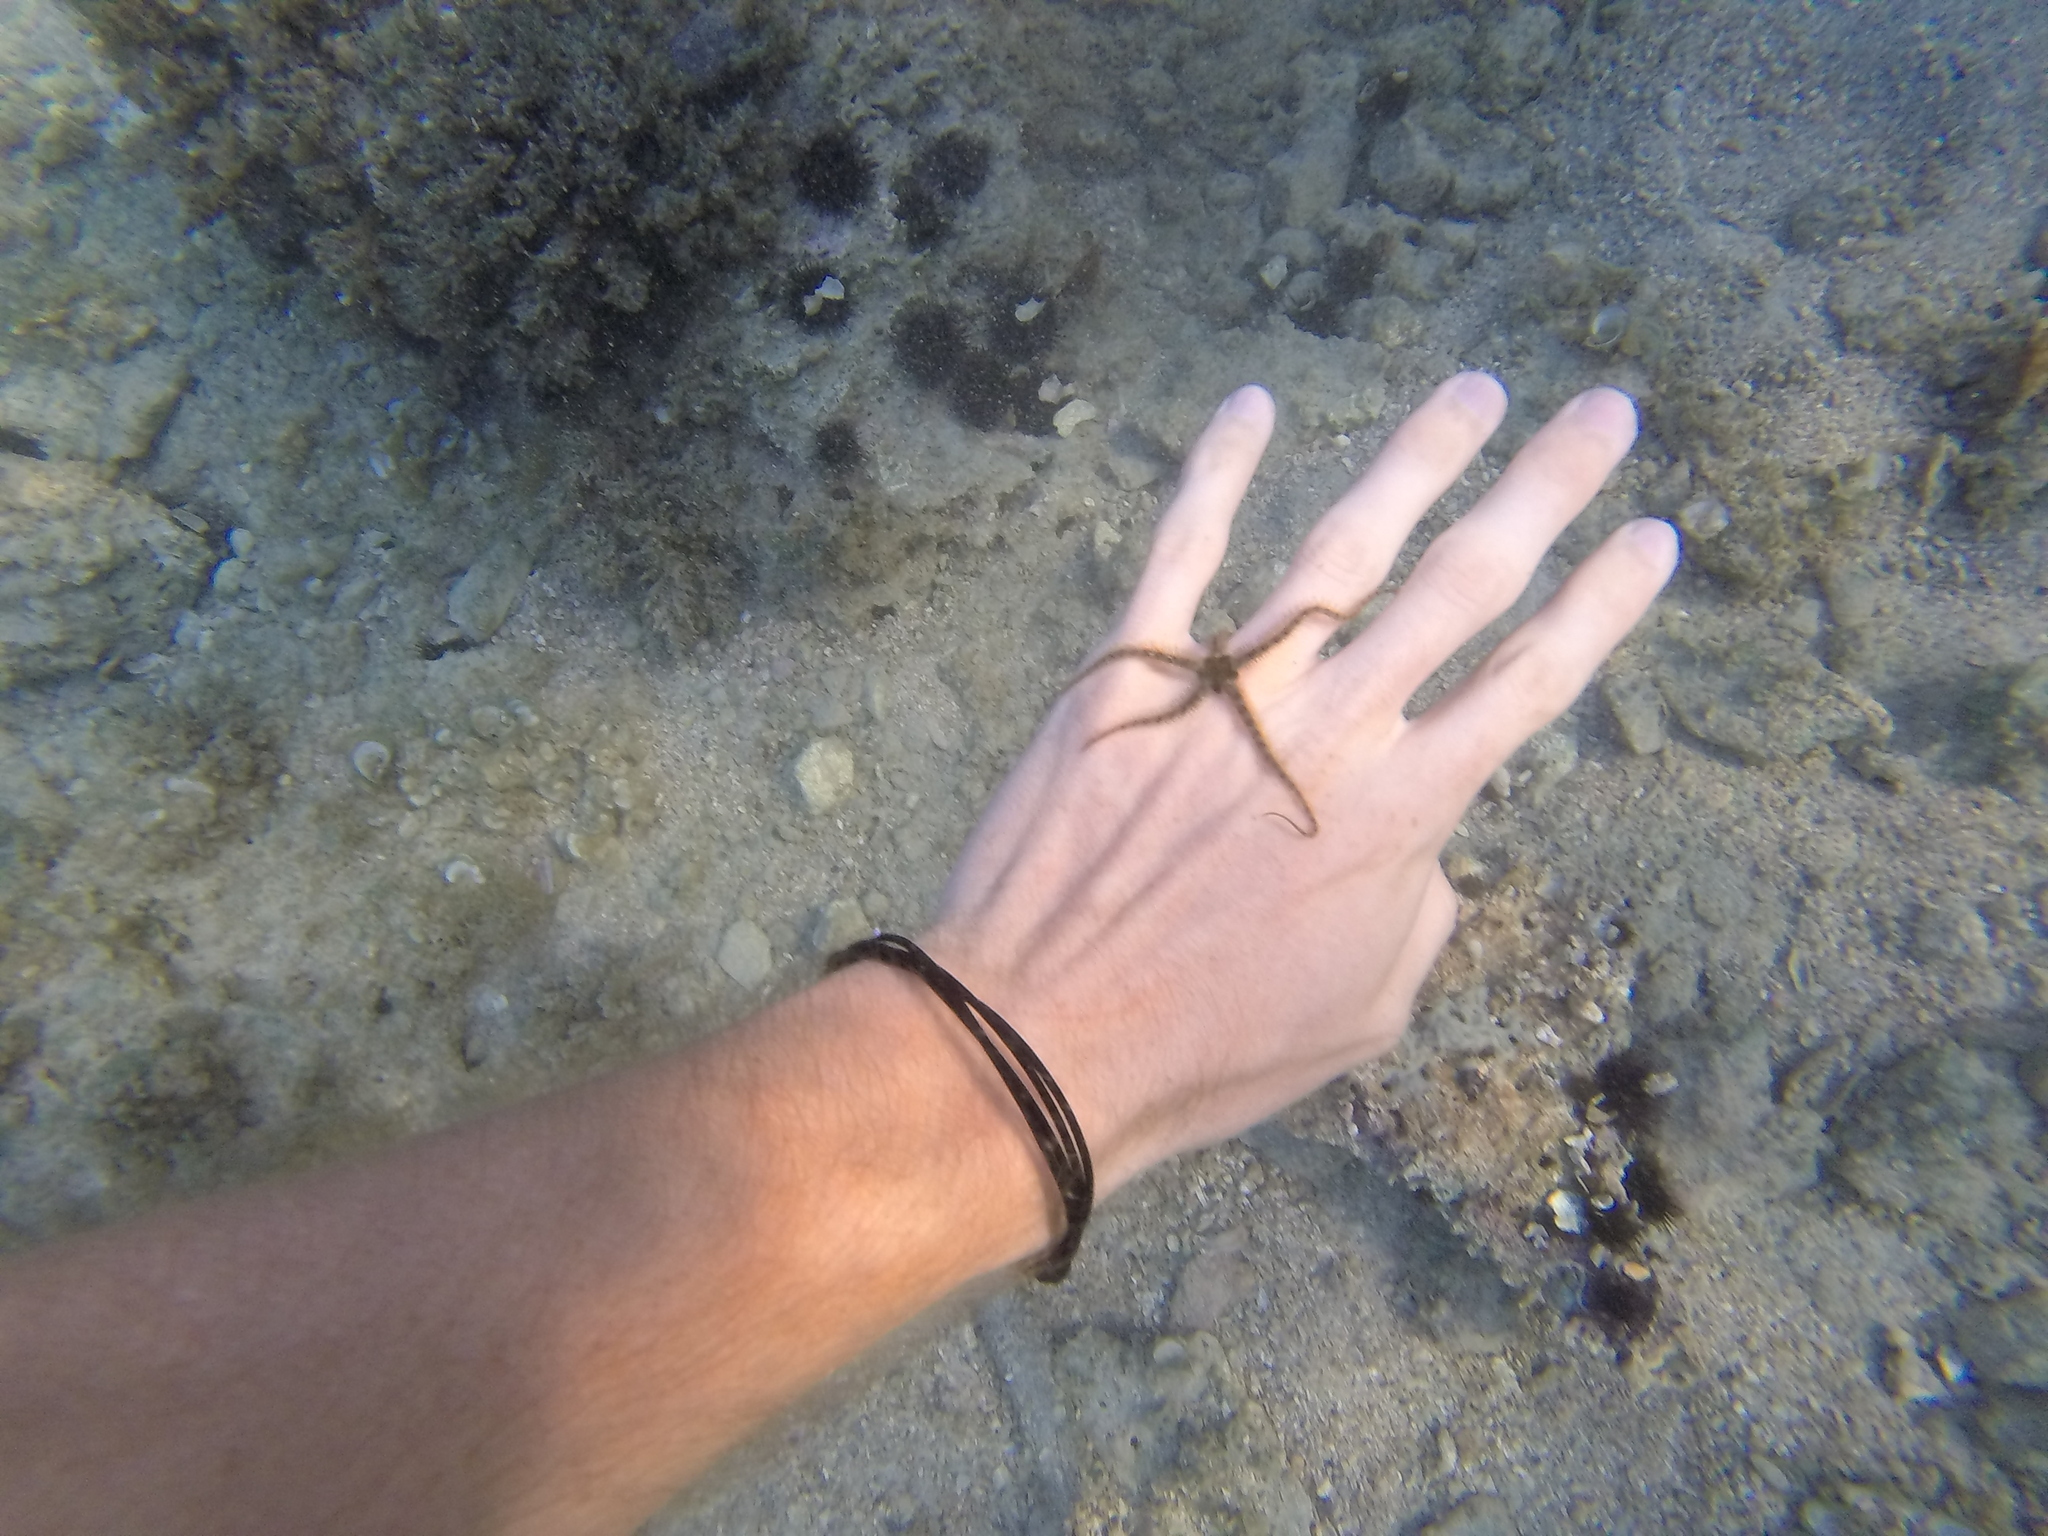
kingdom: Animalia
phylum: Echinodermata
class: Ophiuroidea
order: Amphilepidida
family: Ophiotrichidae
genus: Ophiothrix
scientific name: Ophiothrix fragilis
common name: Common brittlestar
